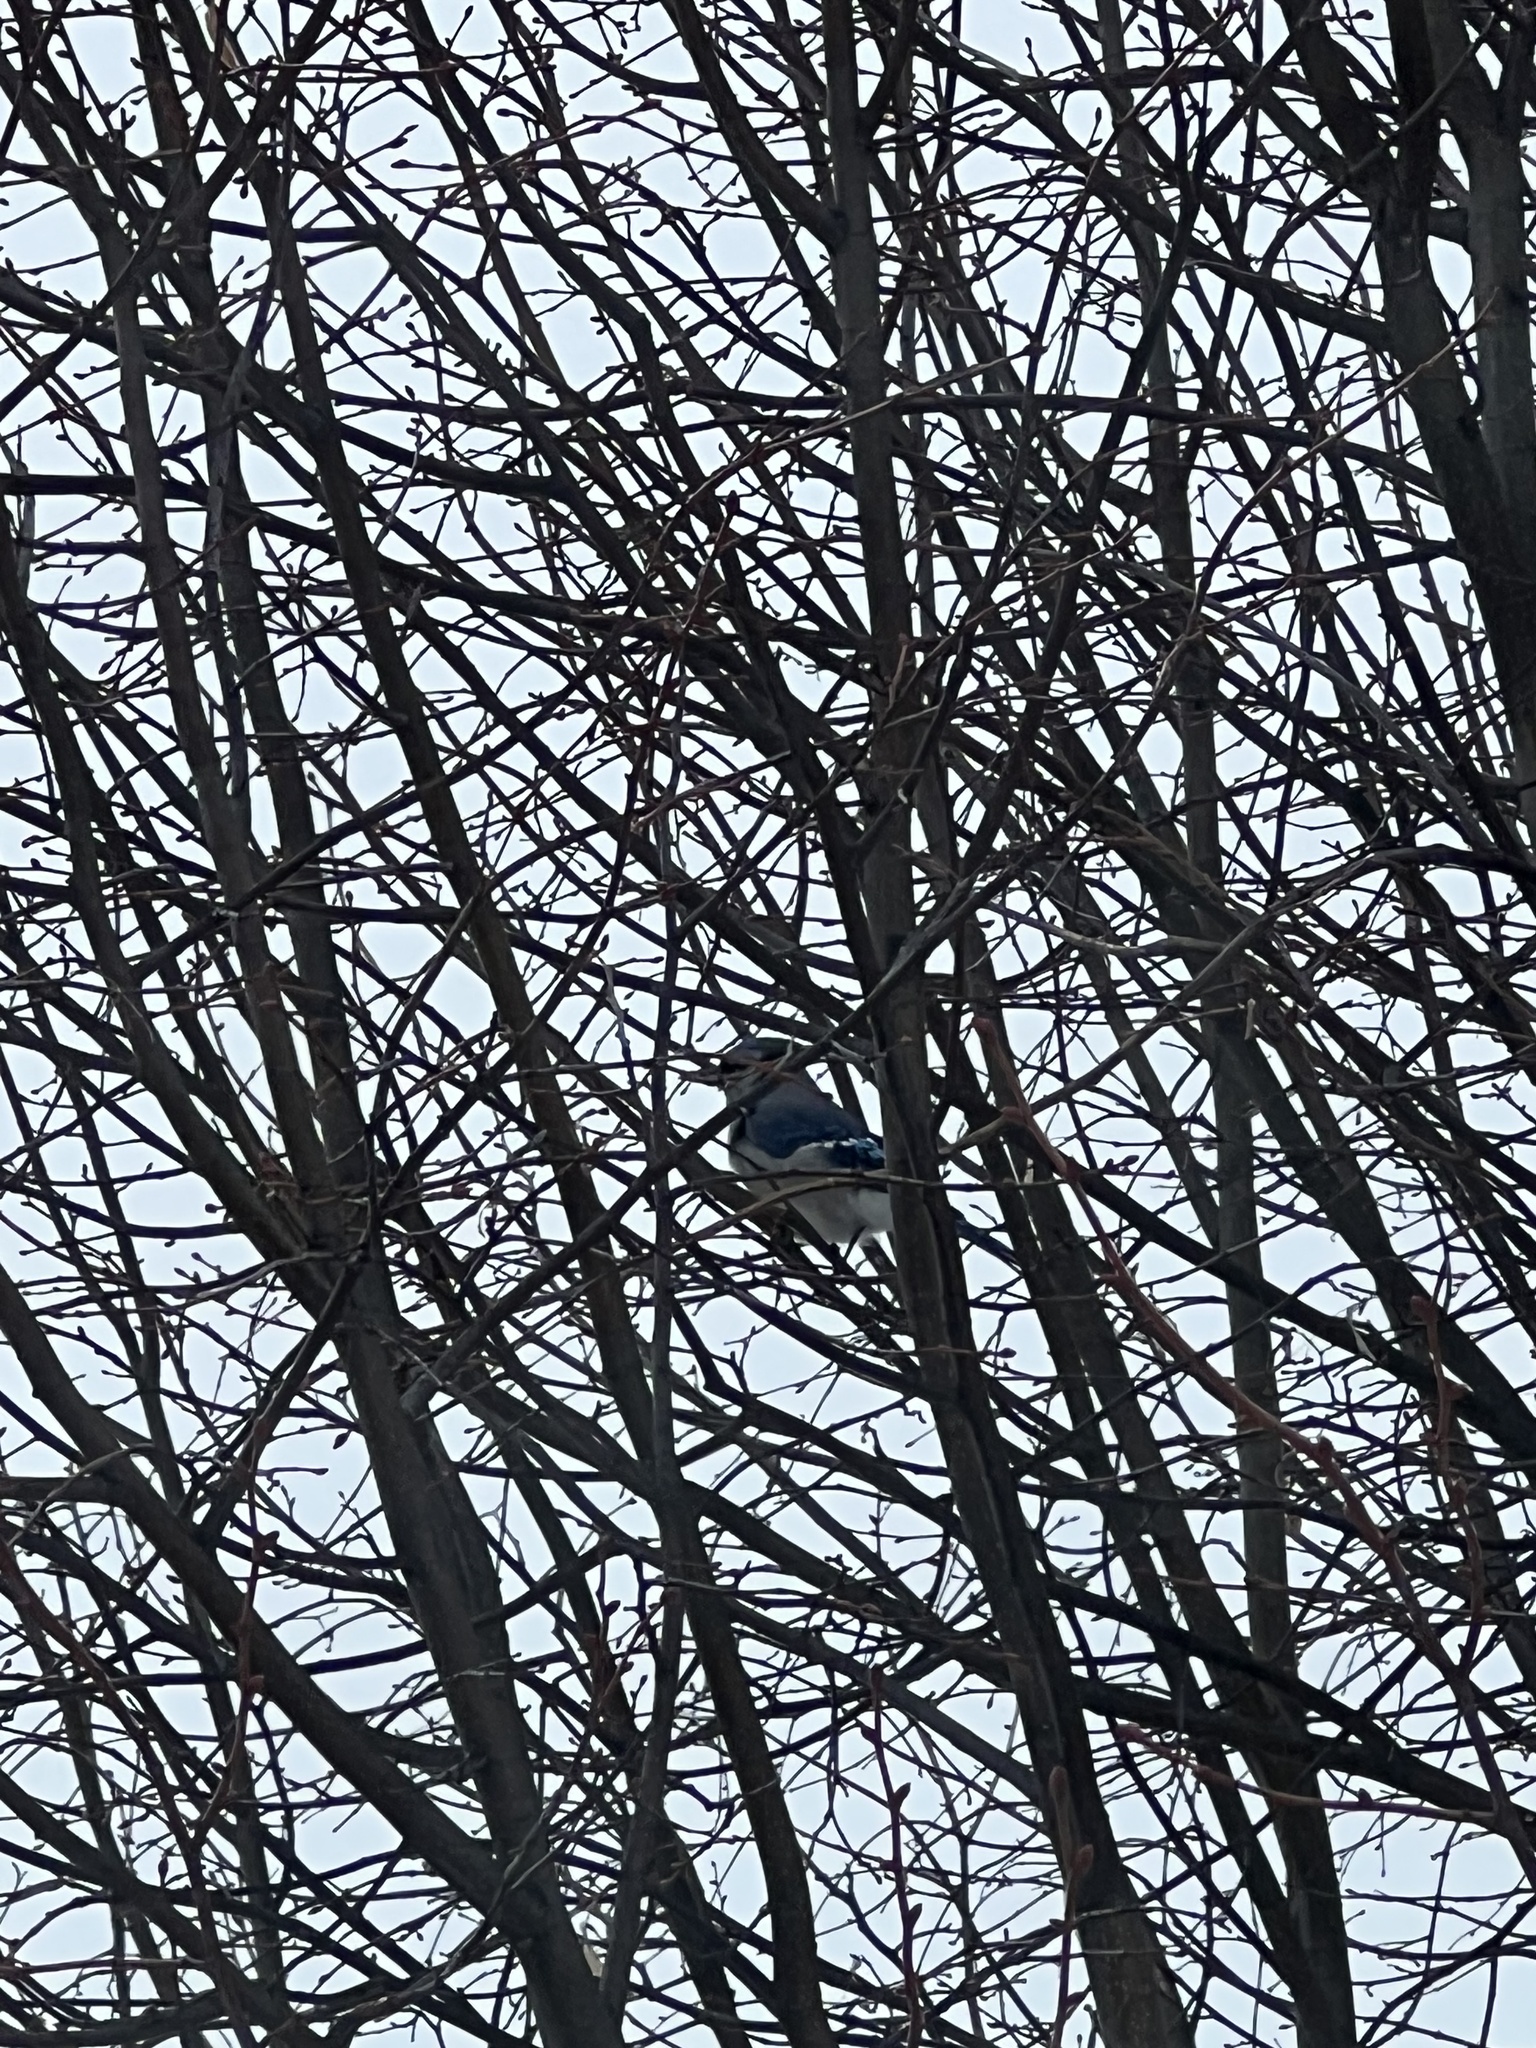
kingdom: Animalia
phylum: Chordata
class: Aves
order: Passeriformes
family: Corvidae
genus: Cyanocitta
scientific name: Cyanocitta cristata
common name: Blue jay
